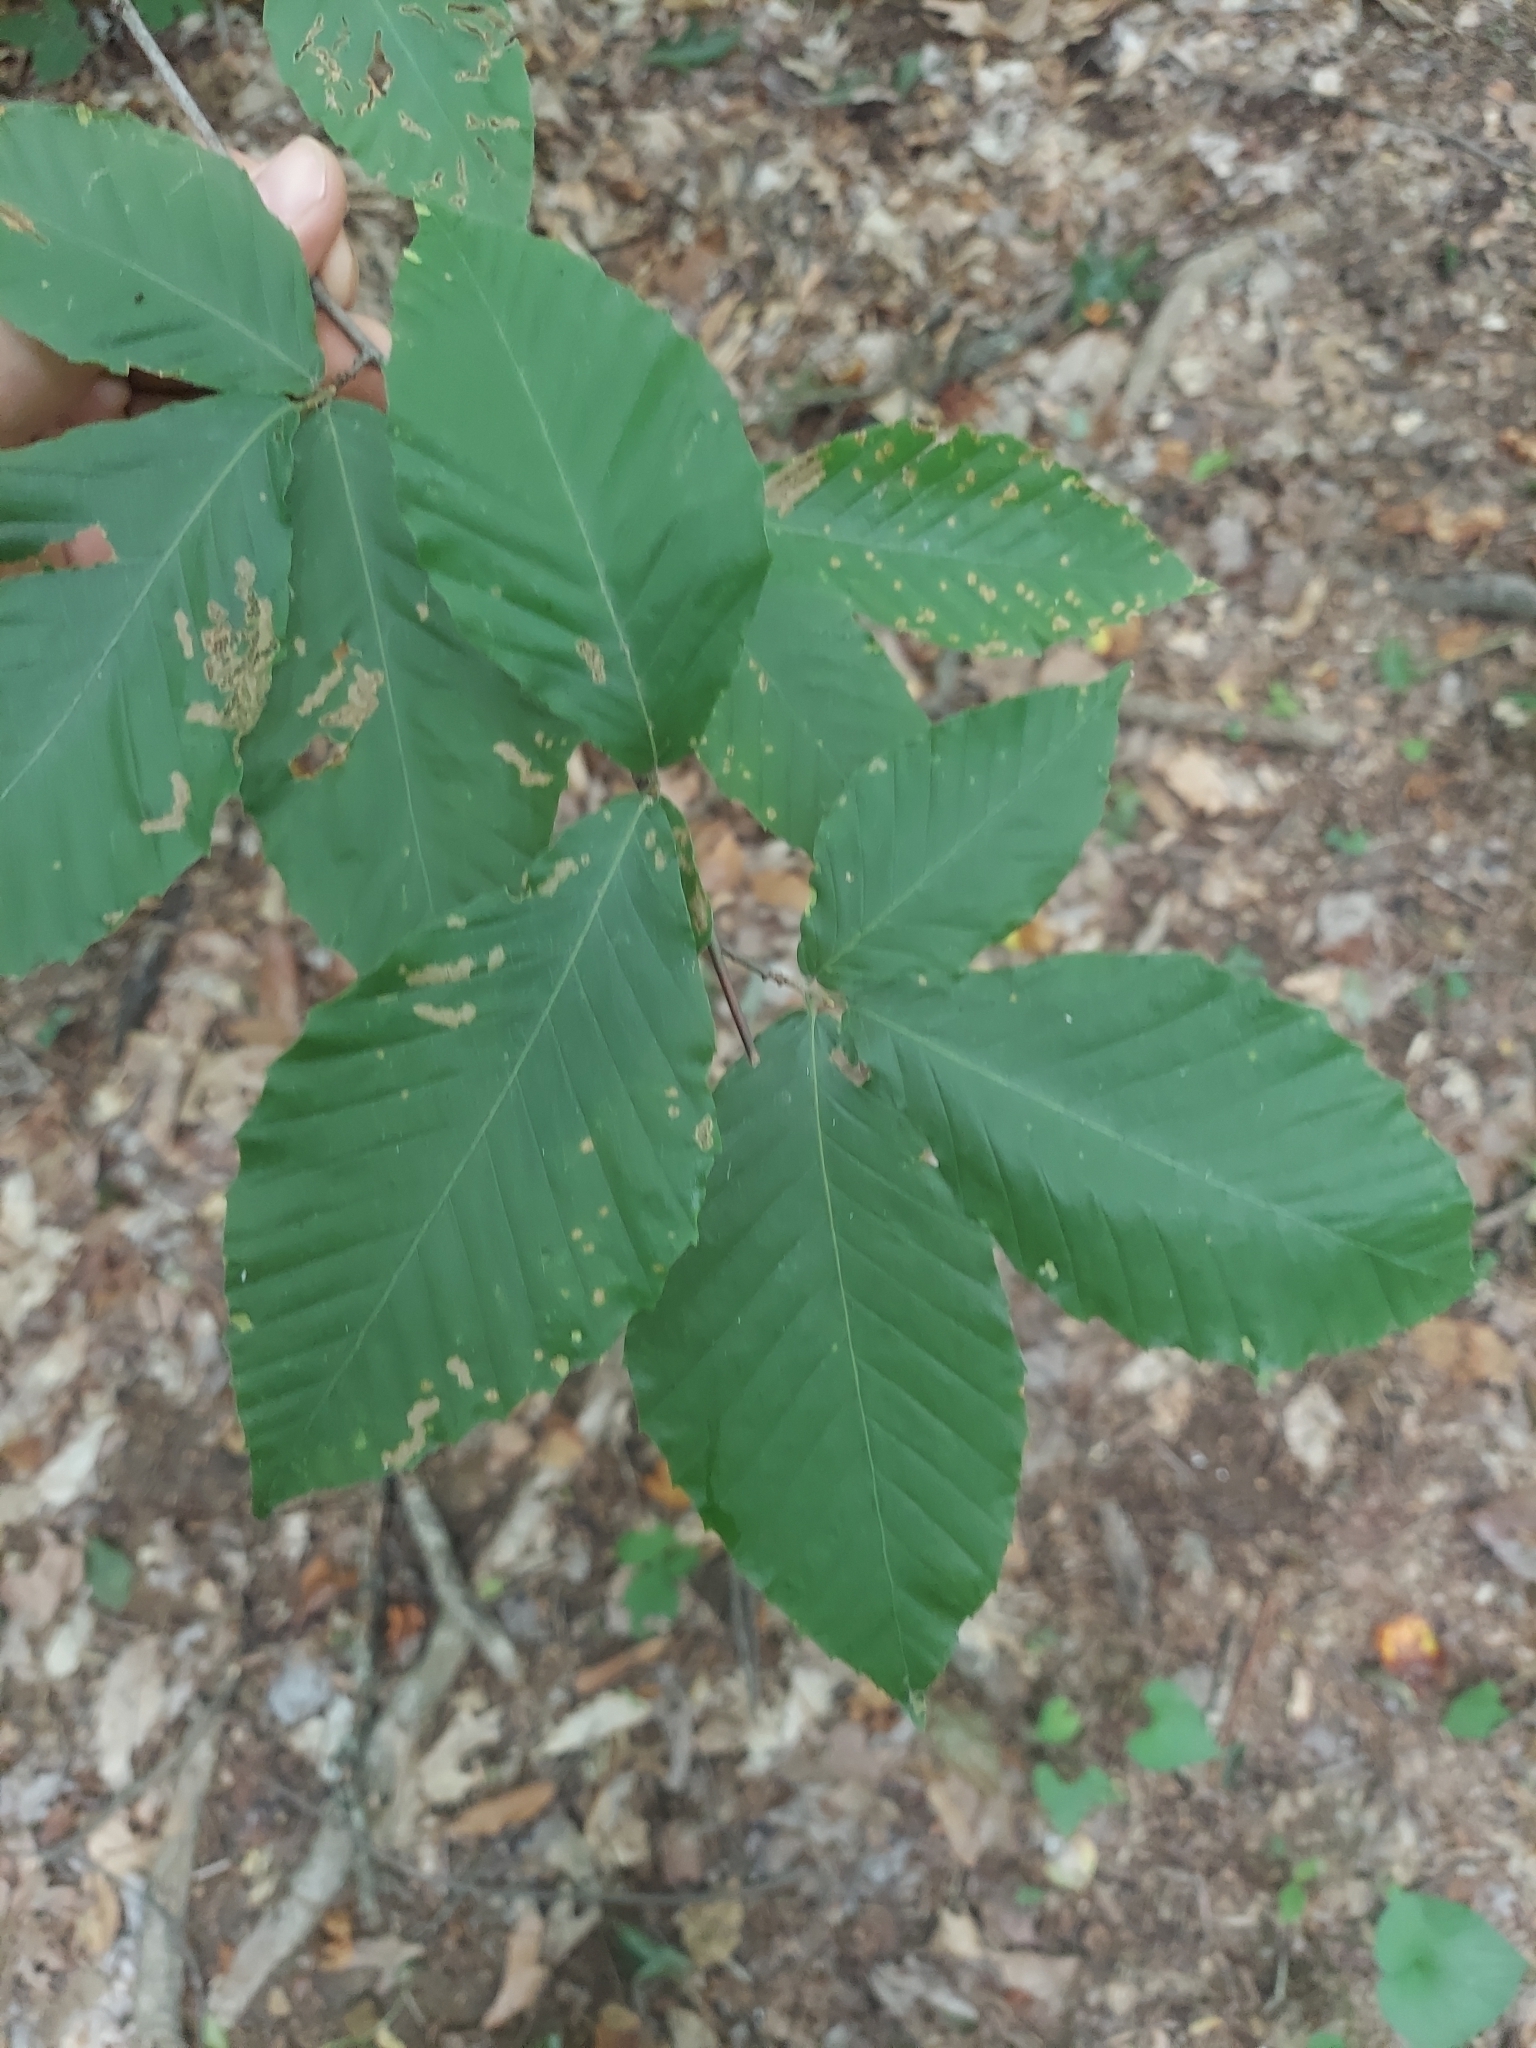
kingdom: Plantae
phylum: Tracheophyta
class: Magnoliopsida
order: Fagales
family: Fagaceae
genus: Fagus
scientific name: Fagus grandifolia
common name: American beech
